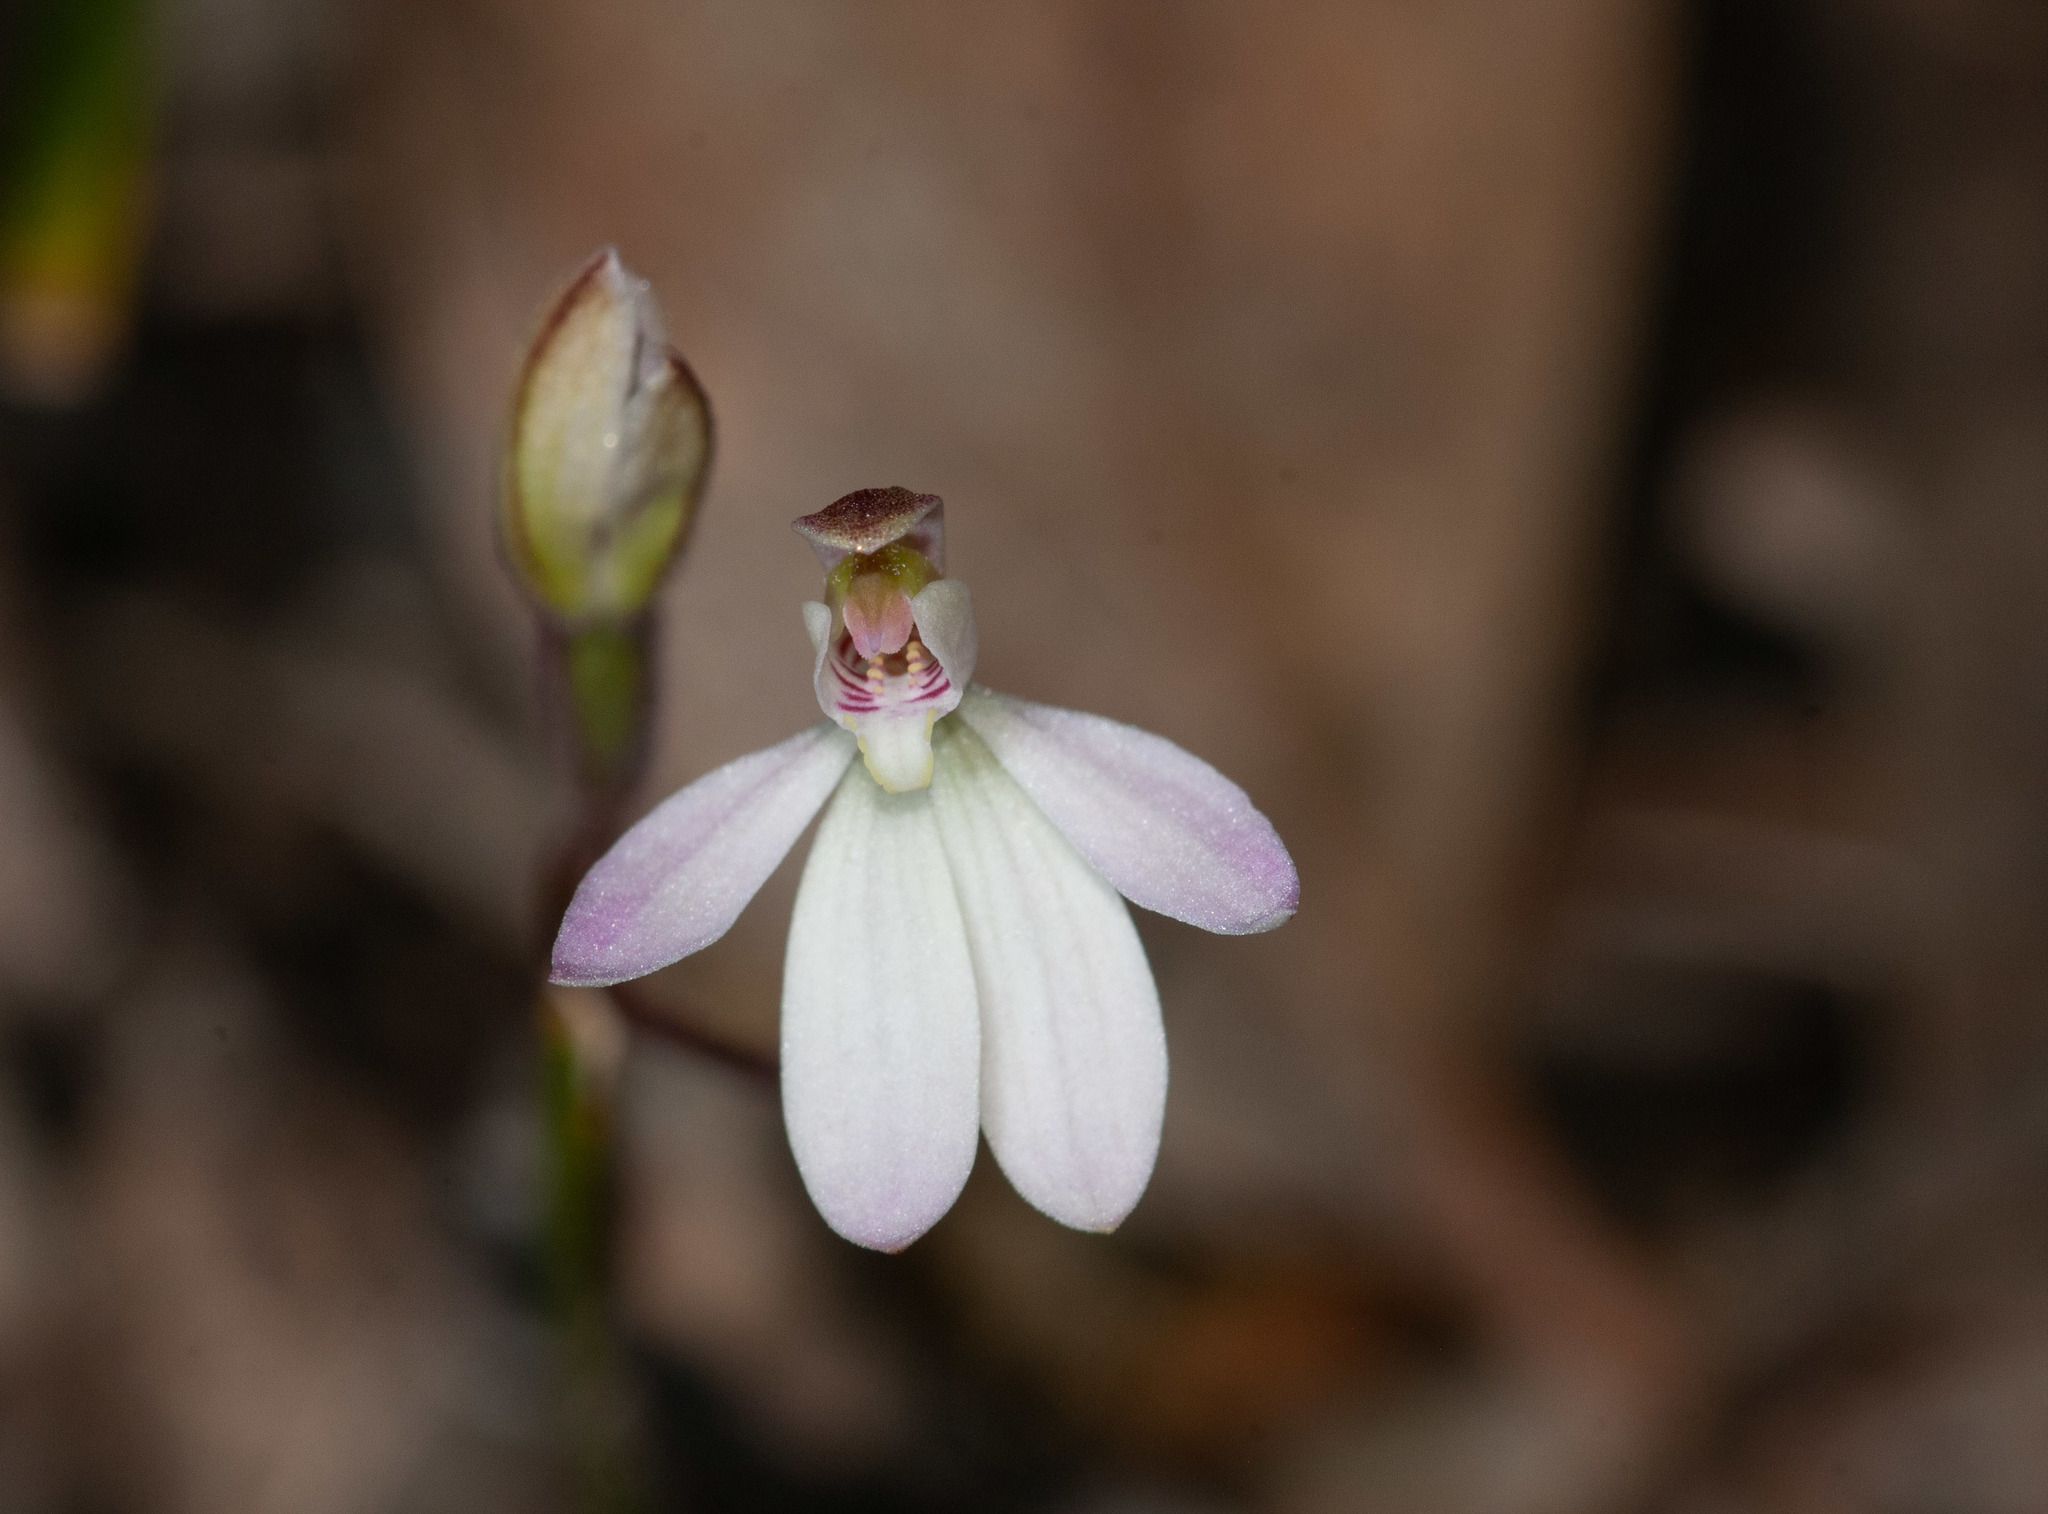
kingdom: Plantae
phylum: Tracheophyta
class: Liliopsida
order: Asparagales
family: Orchidaceae
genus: Caladenia
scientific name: Caladenia prolata
